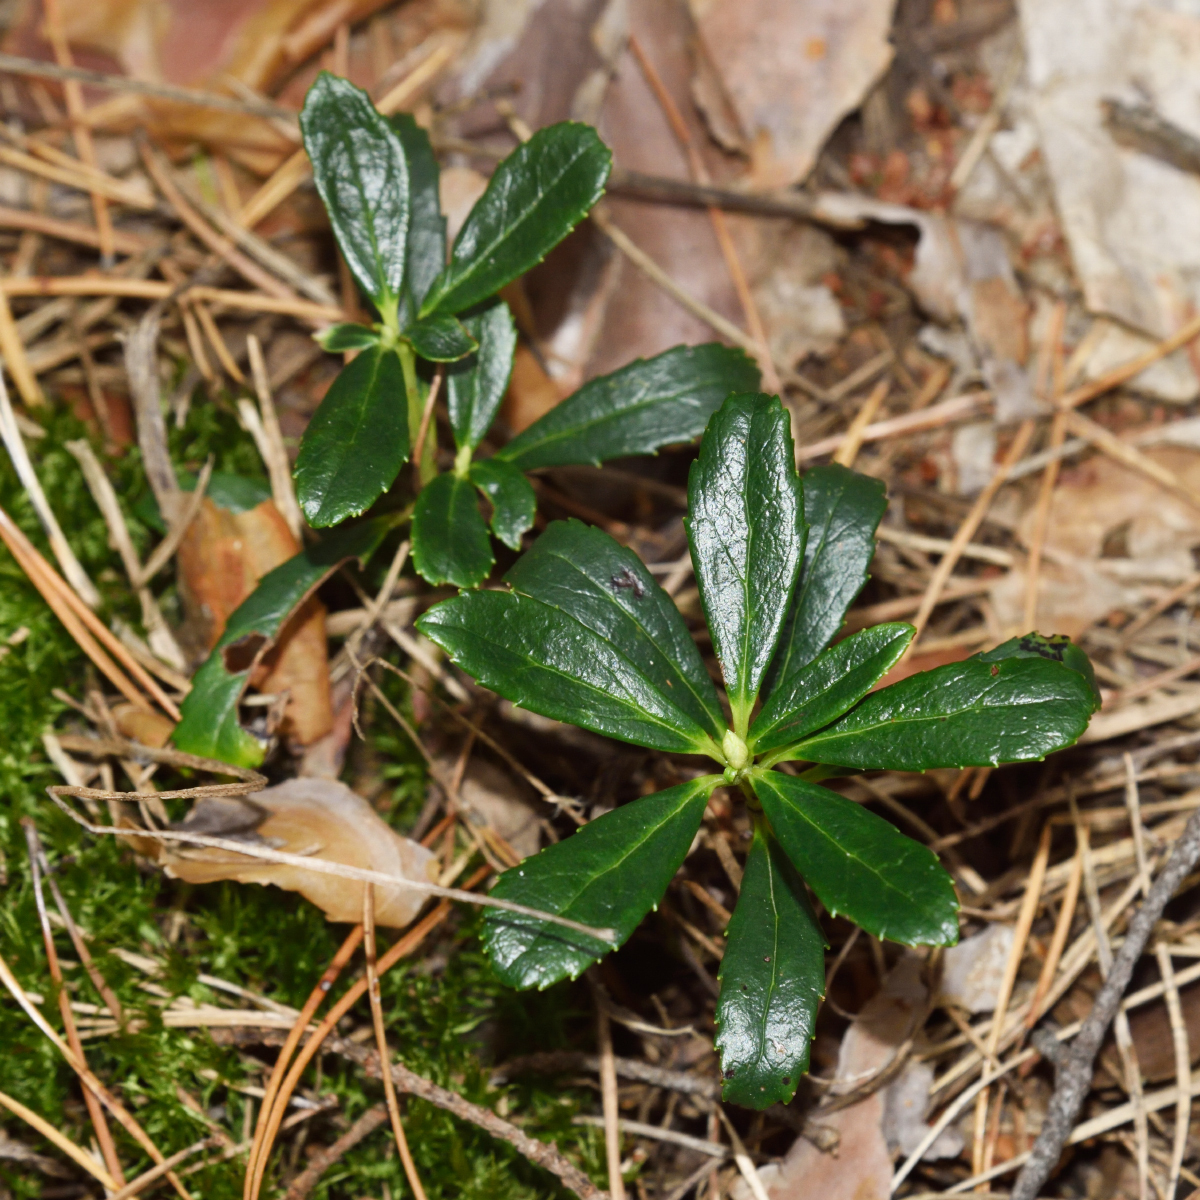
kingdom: Plantae
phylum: Tracheophyta
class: Magnoliopsida
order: Ericales
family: Ericaceae
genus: Chimaphila
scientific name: Chimaphila umbellata
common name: Pipsissewa
